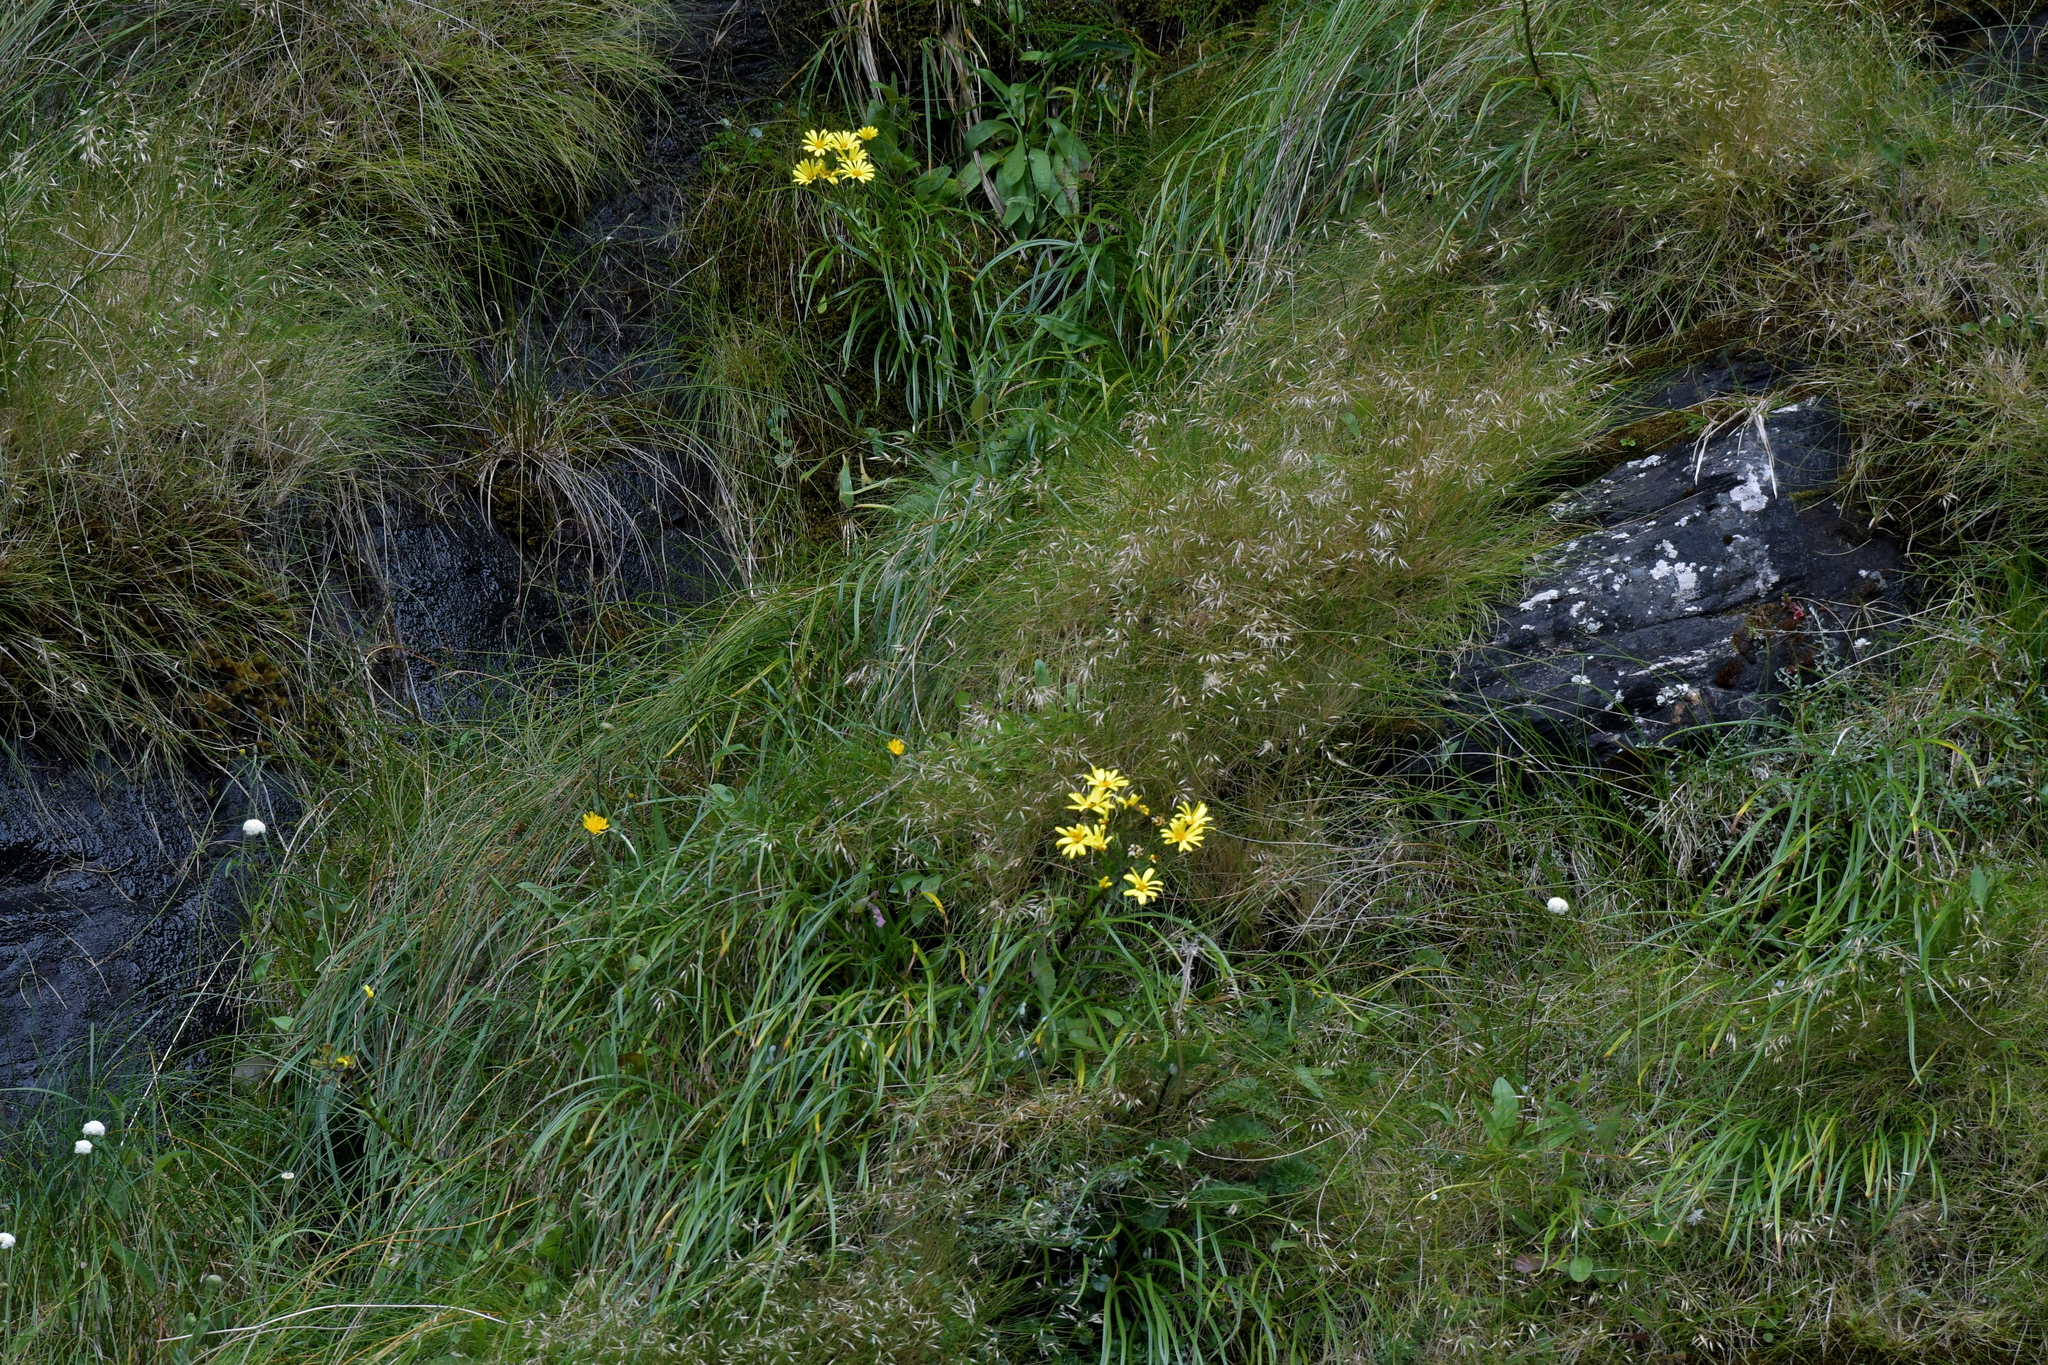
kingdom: Plantae
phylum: Tracheophyta
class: Magnoliopsida
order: Asterales
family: Asteraceae
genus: Dolichoglottis
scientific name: Dolichoglottis lyallii
